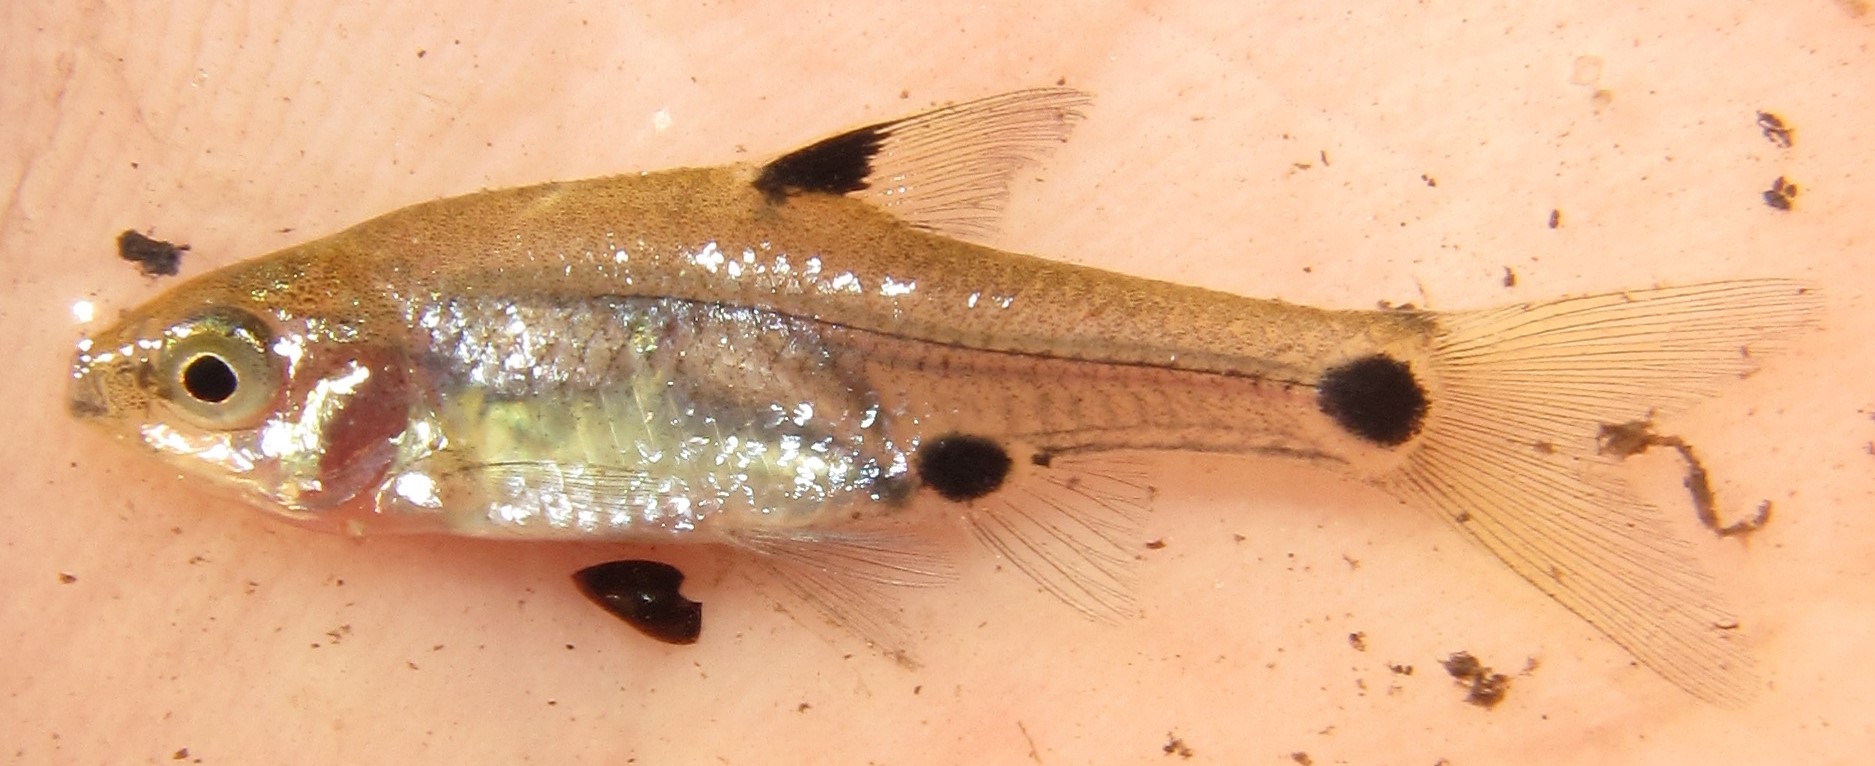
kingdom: Animalia
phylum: Chordata
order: Cypriniformes
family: Cyprinidae
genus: Enteromius
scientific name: Enteromius haasianus
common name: Sickle-fin barb
